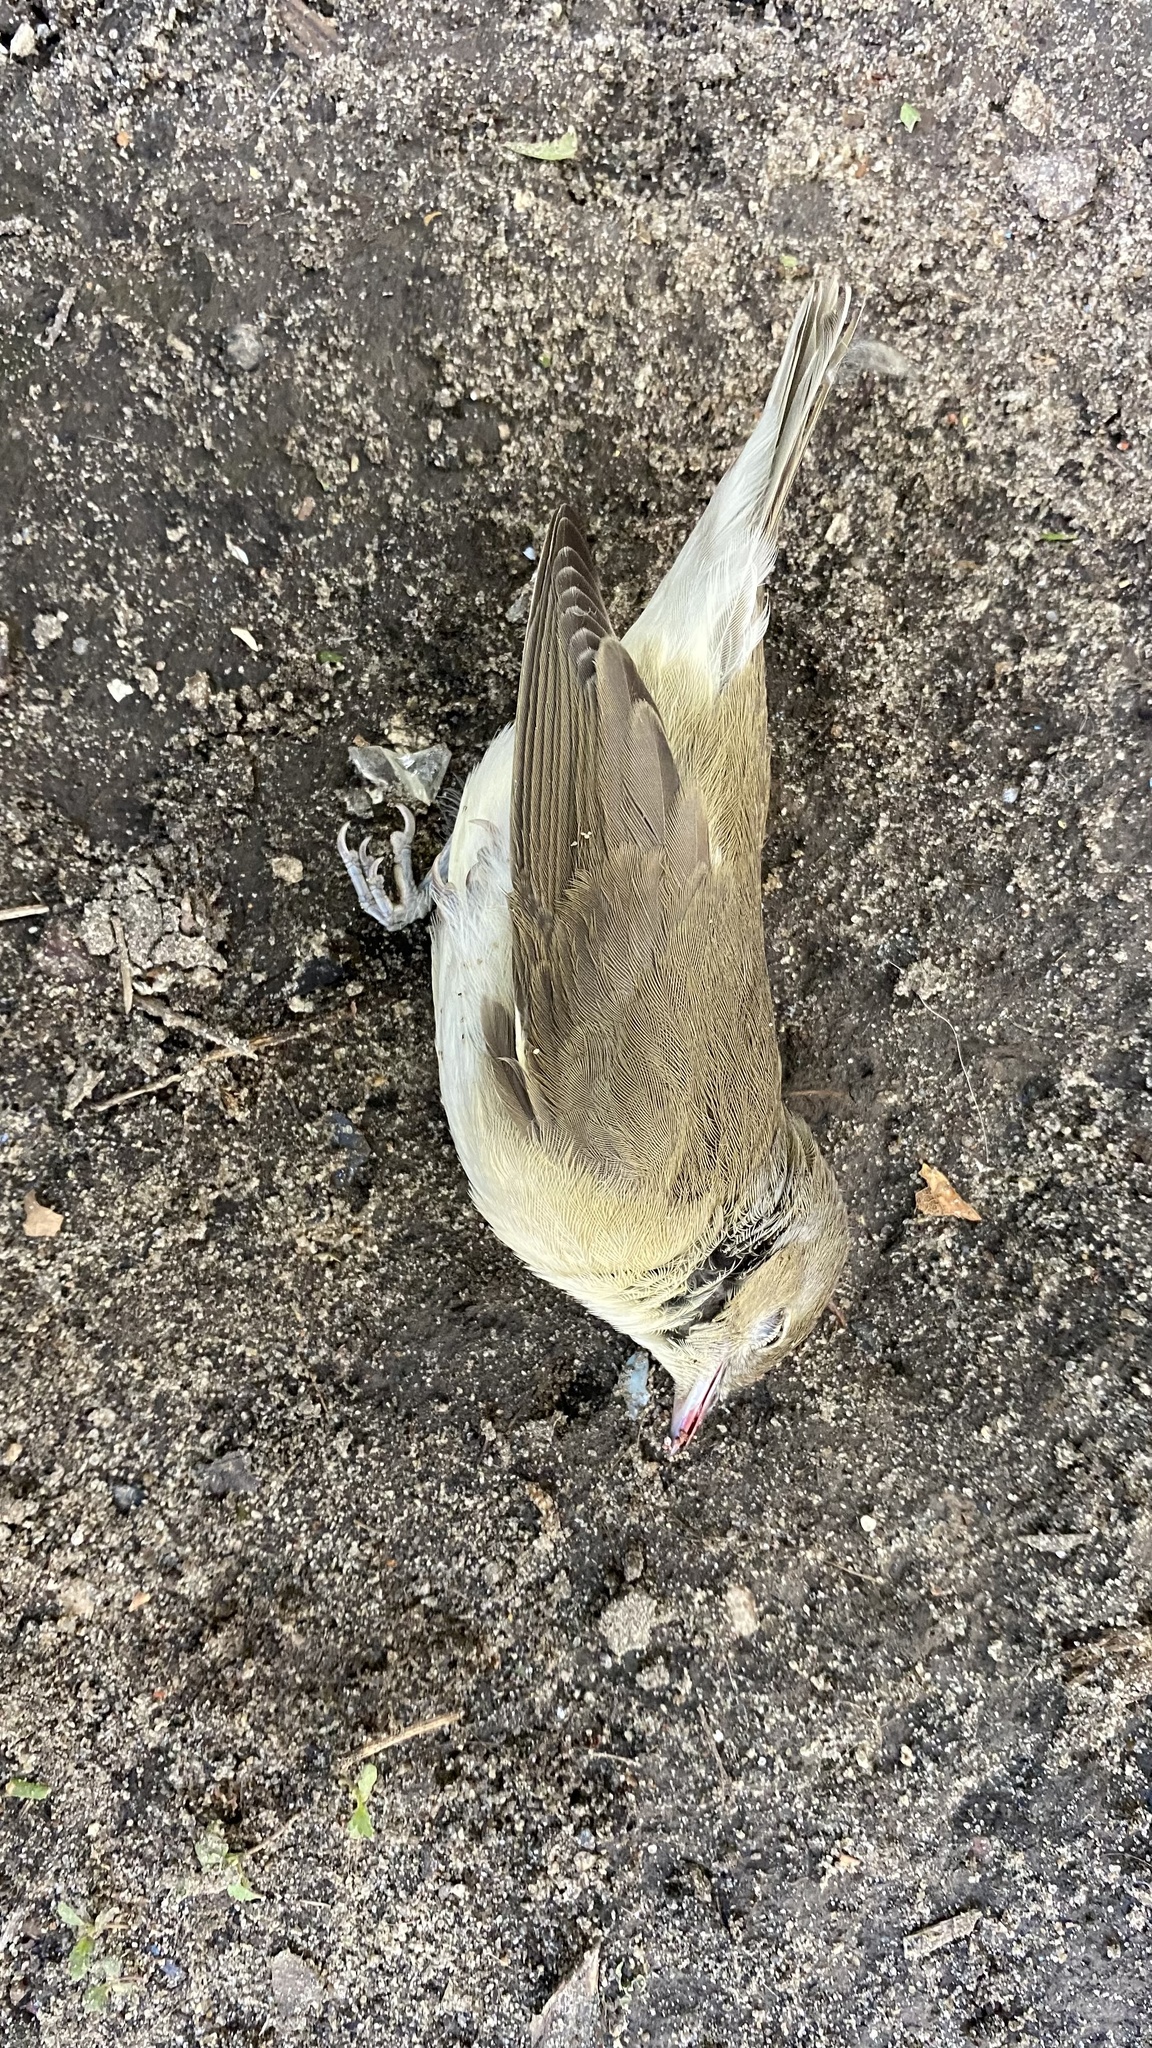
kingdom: Animalia
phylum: Chordata
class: Aves
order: Passeriformes
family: Sylviidae
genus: Sylvia
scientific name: Sylvia borin
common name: Garden warbler
